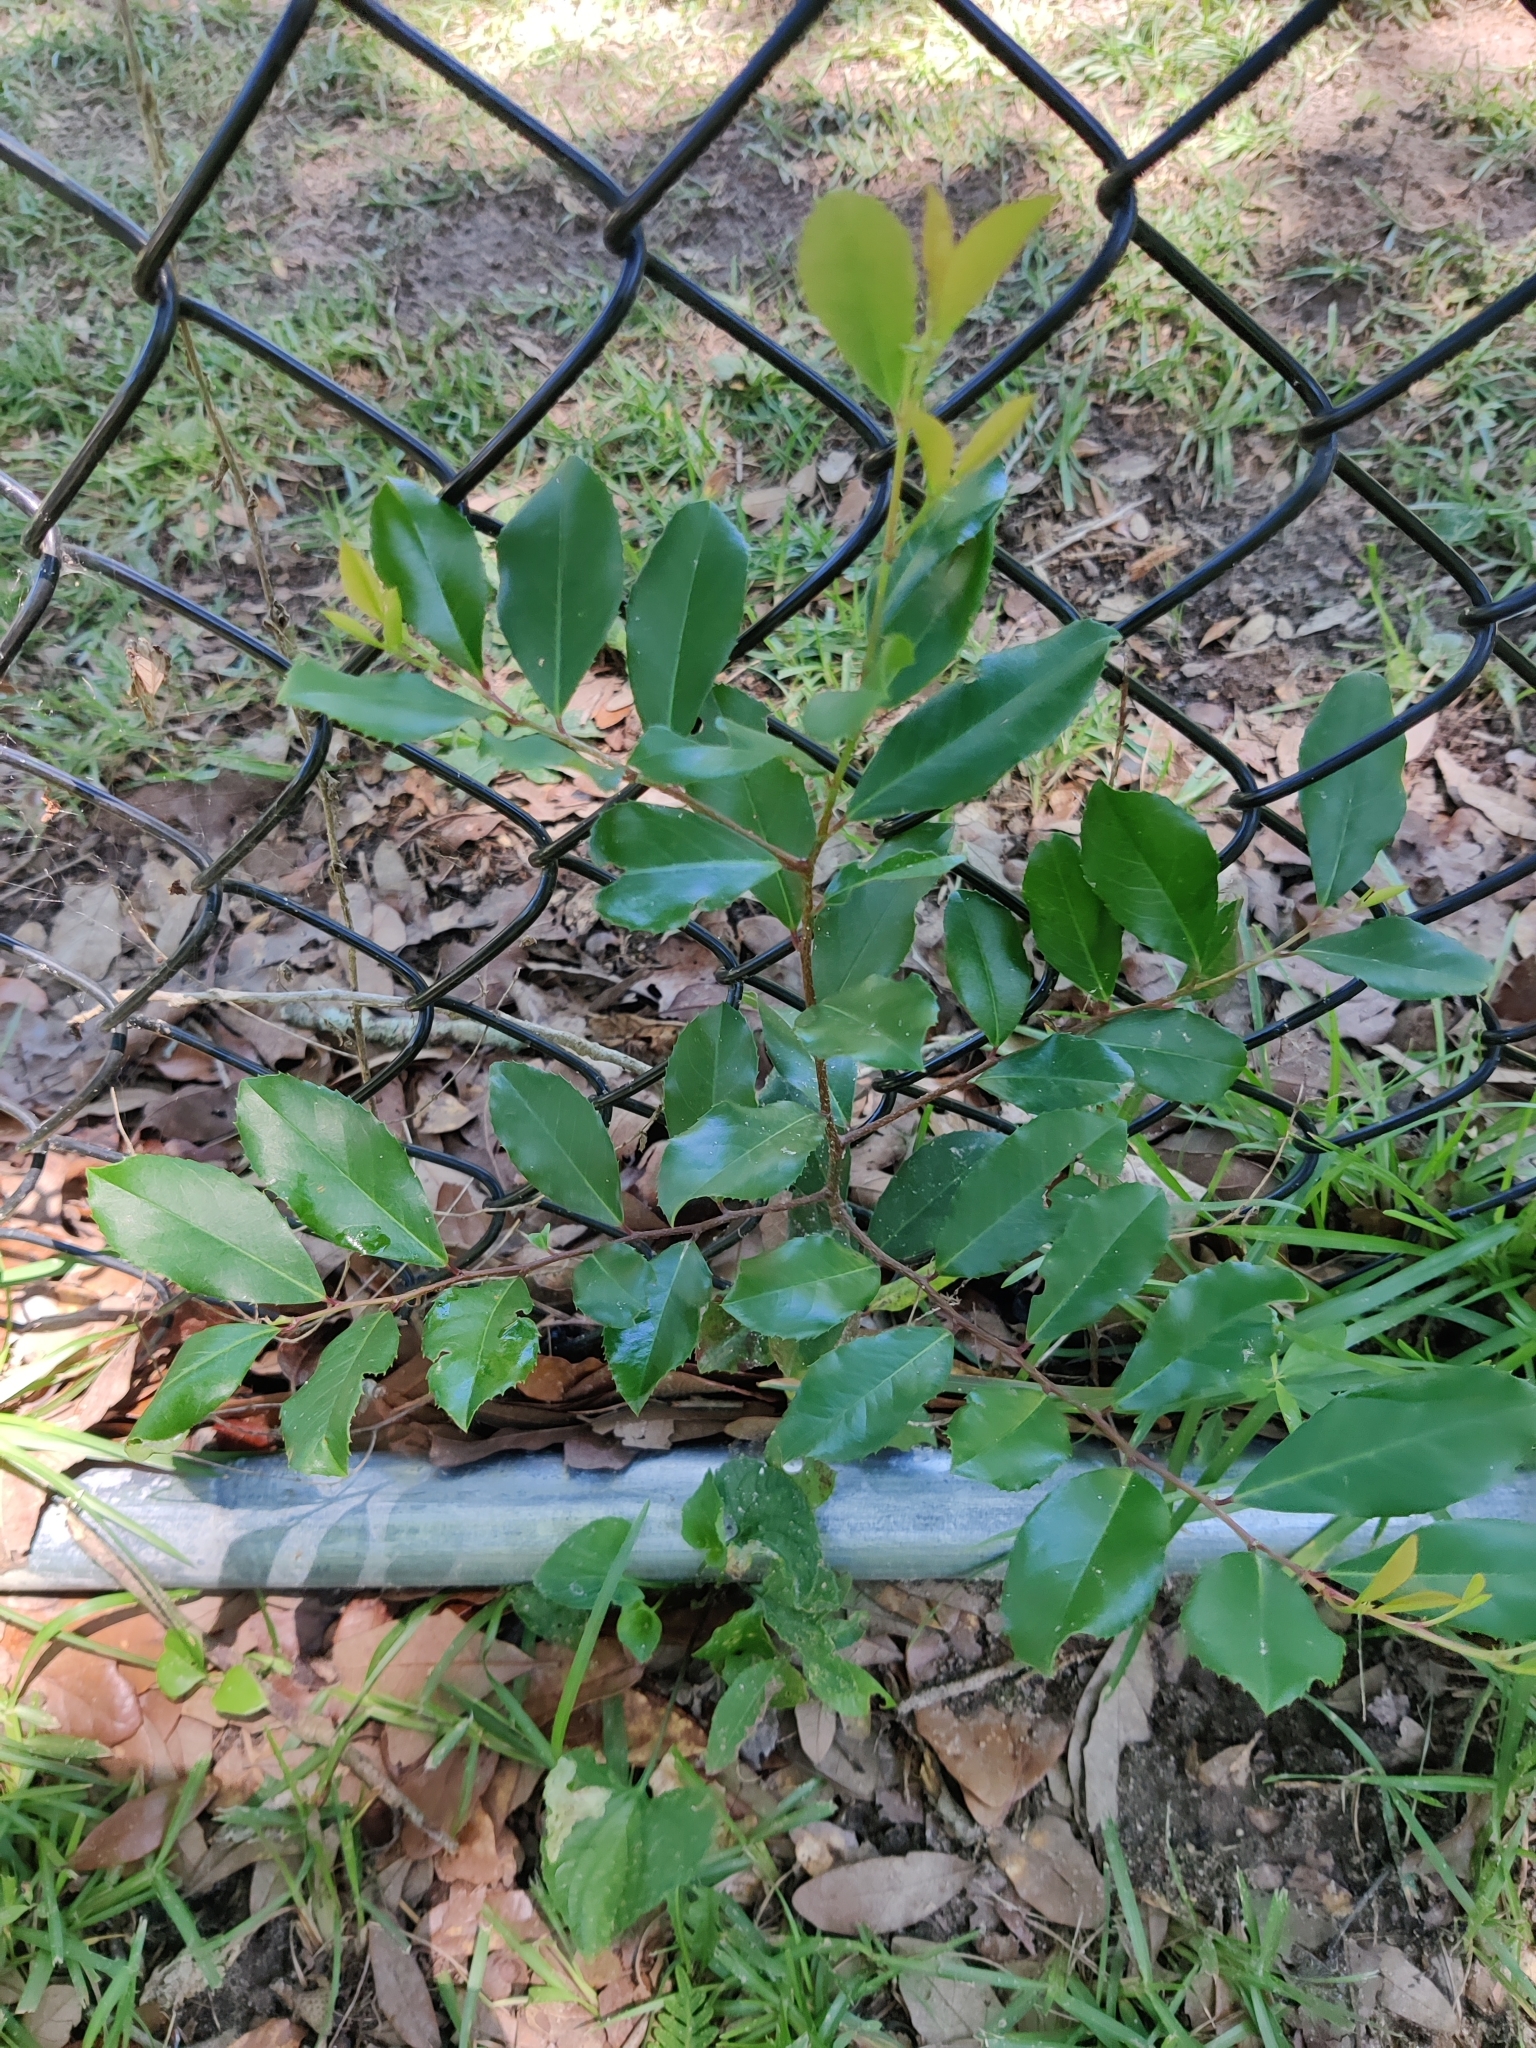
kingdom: Plantae
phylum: Tracheophyta
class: Magnoliopsida
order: Rosales
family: Rosaceae
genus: Prunus
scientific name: Prunus caroliniana
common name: Carolina laurel cherry
